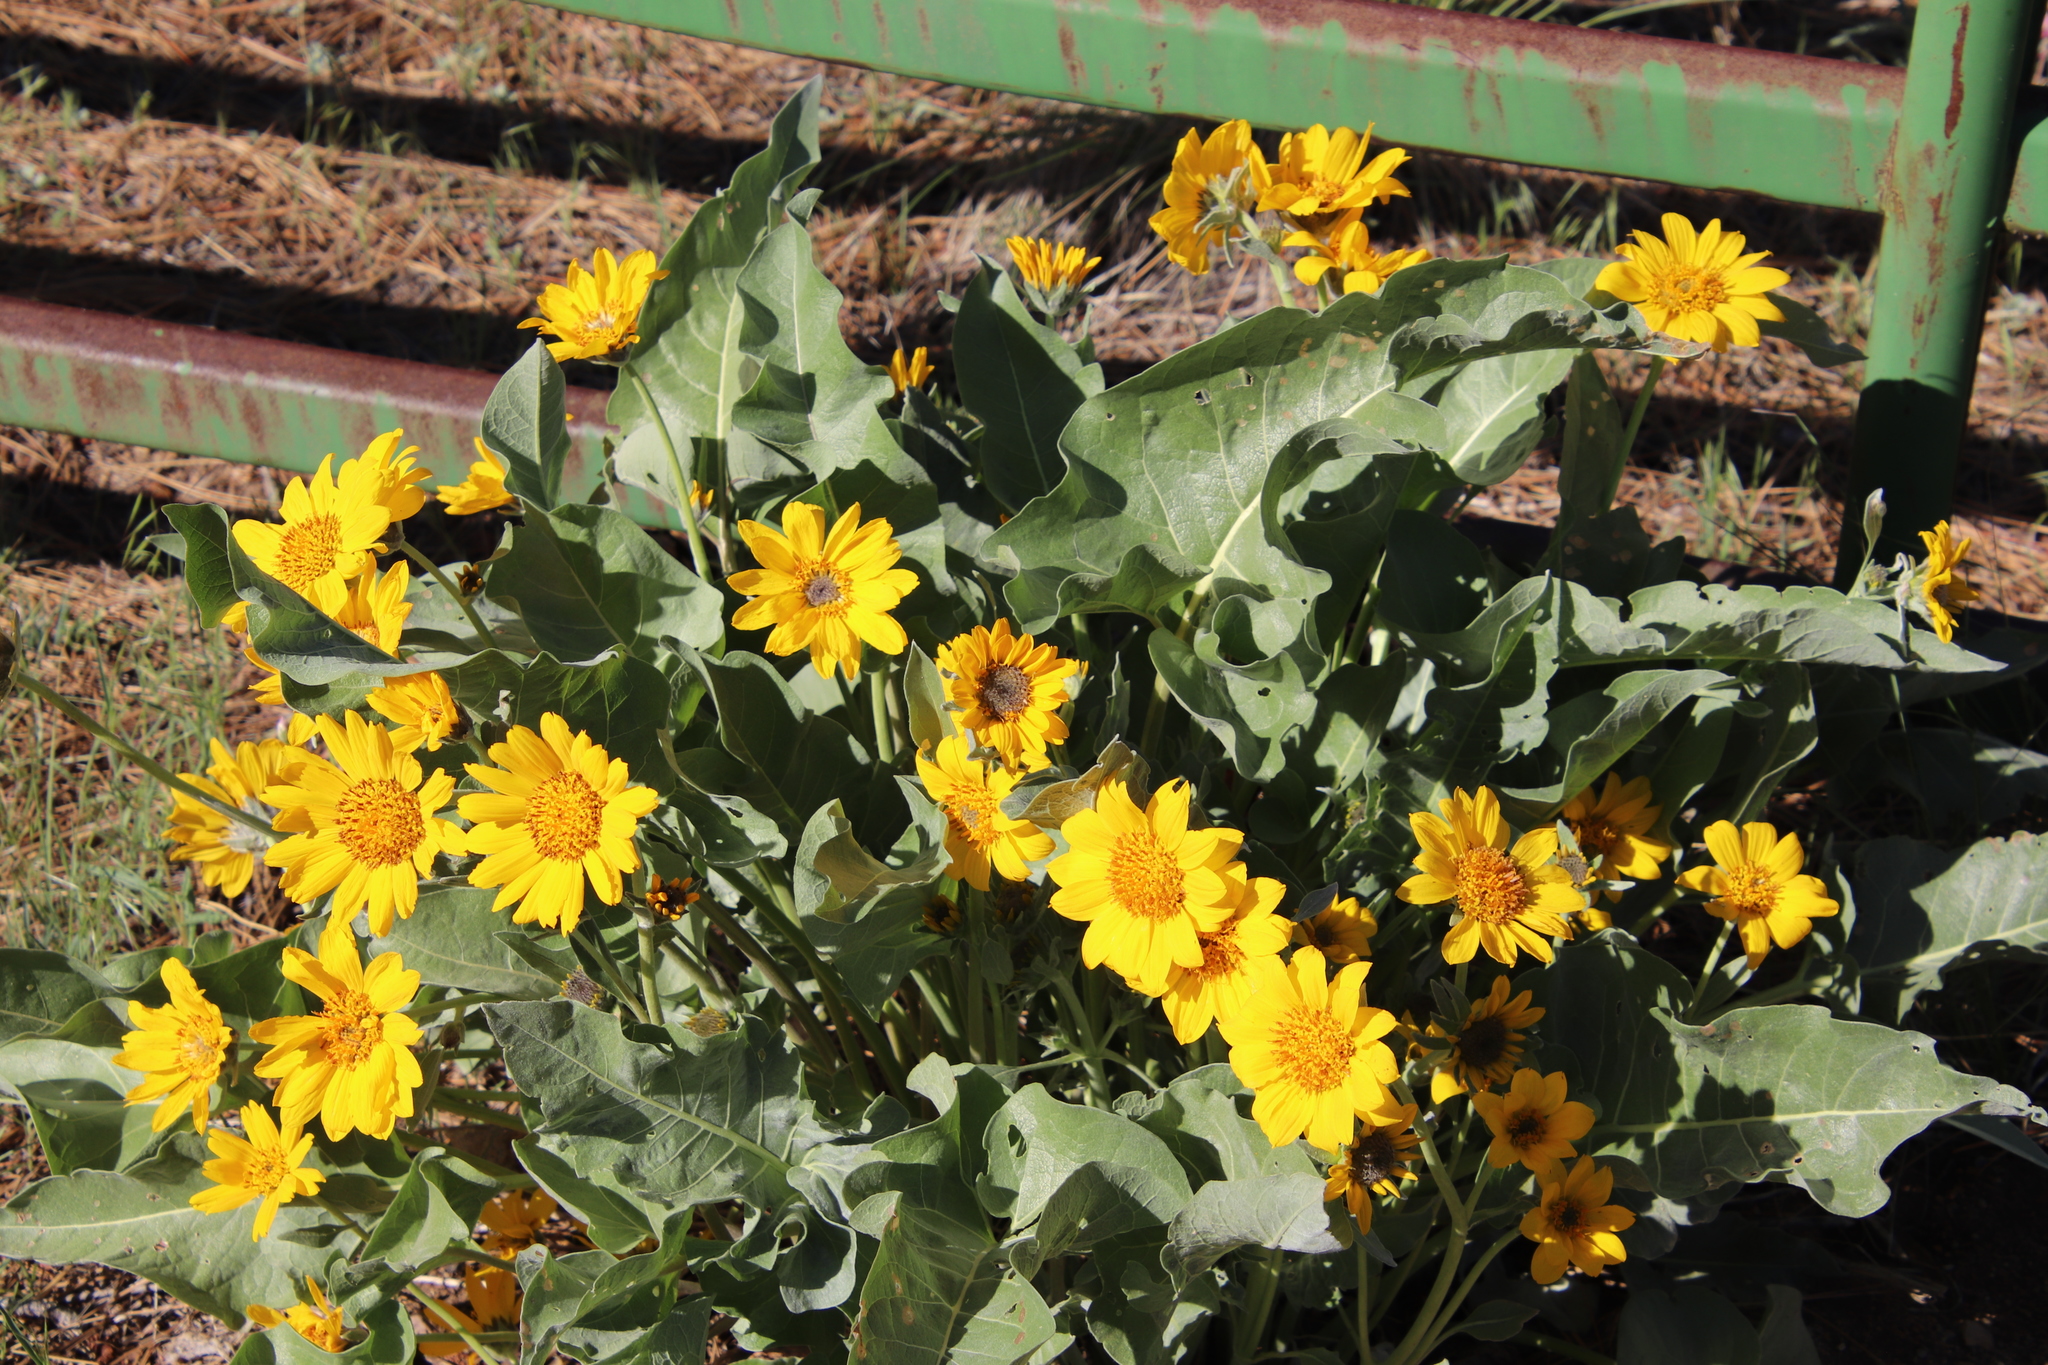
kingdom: Plantae
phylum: Tracheophyta
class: Magnoliopsida
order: Asterales
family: Asteraceae
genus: Wyethia
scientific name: Wyethia sagittata
